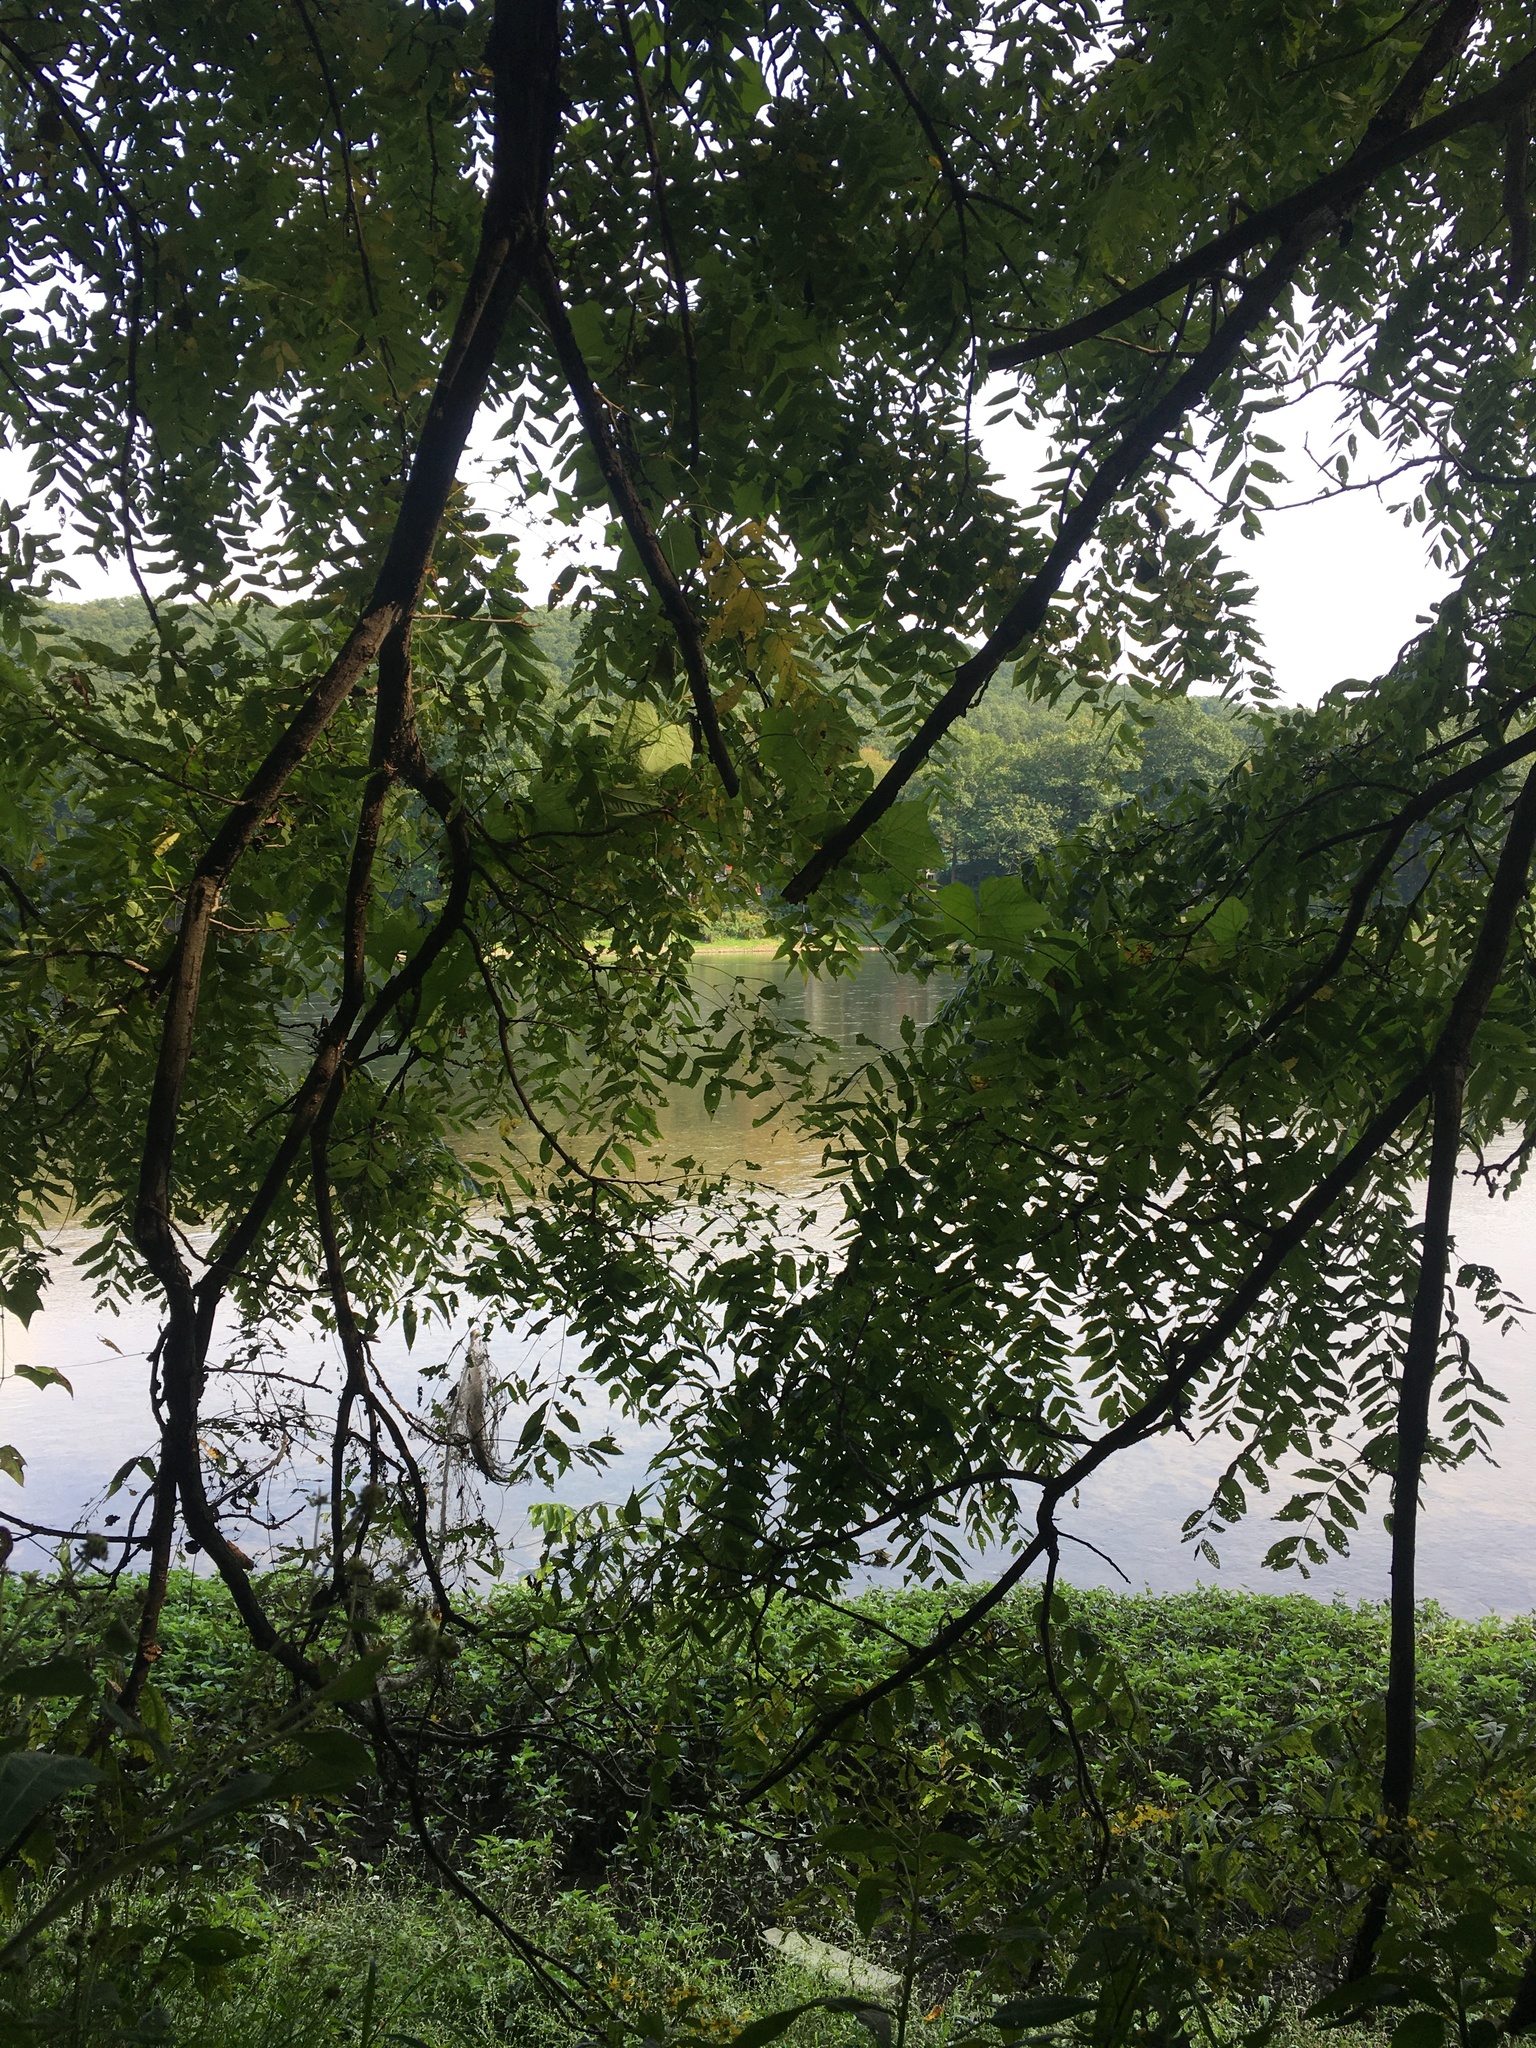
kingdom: Plantae
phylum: Tracheophyta
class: Magnoliopsida
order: Fagales
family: Juglandaceae
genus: Juglans
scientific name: Juglans nigra
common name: Black walnut
